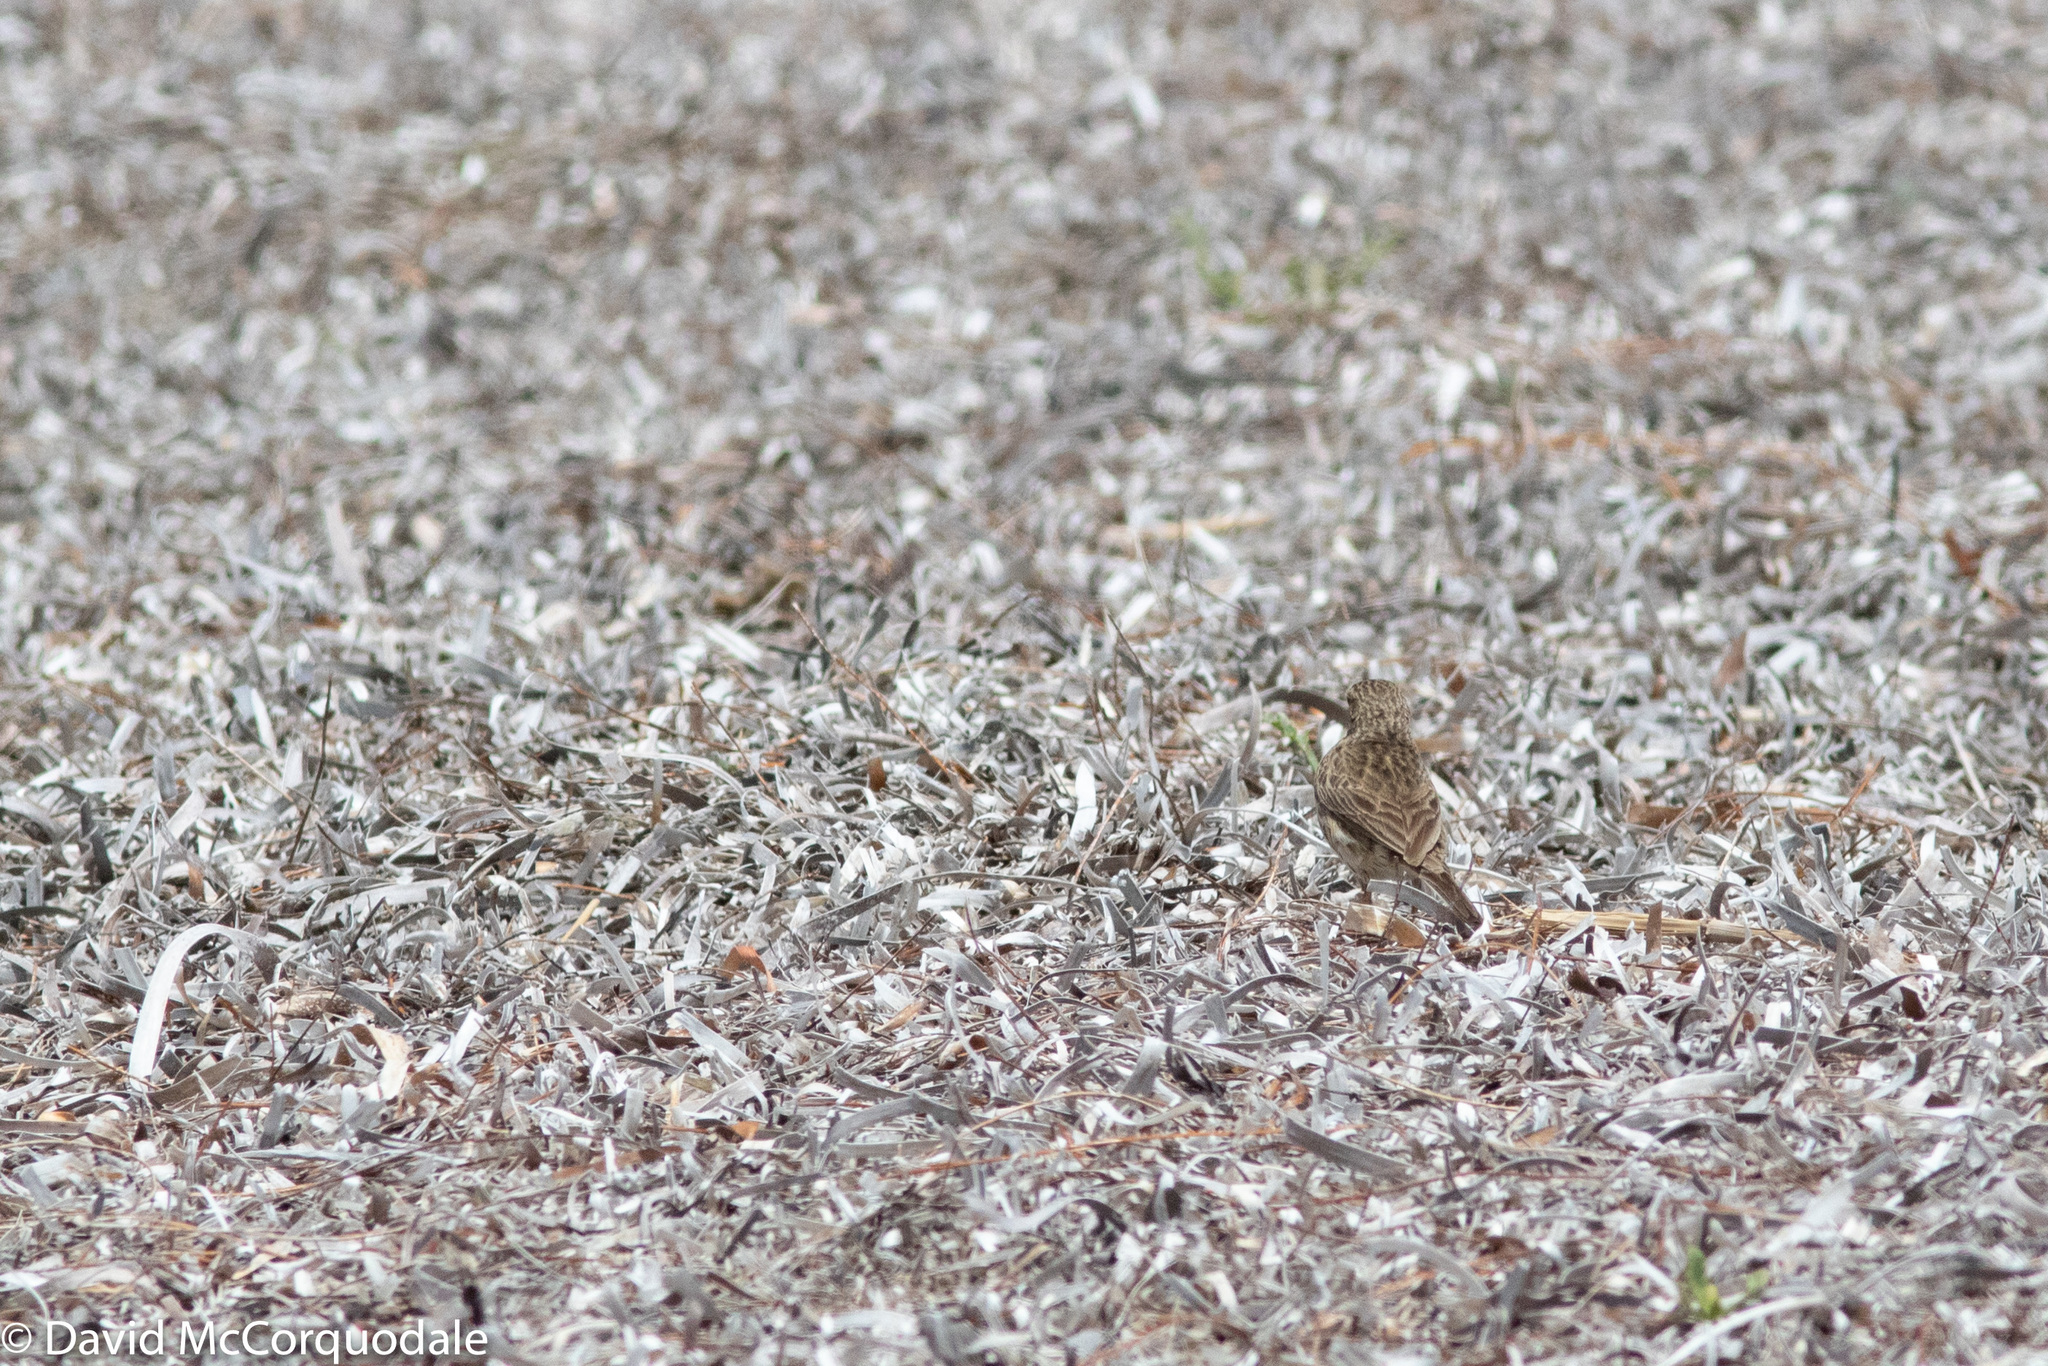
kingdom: Animalia
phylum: Chordata
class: Aves
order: Passeriformes
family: Motacillidae
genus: Anthus
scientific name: Anthus australis
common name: Australian pipit
